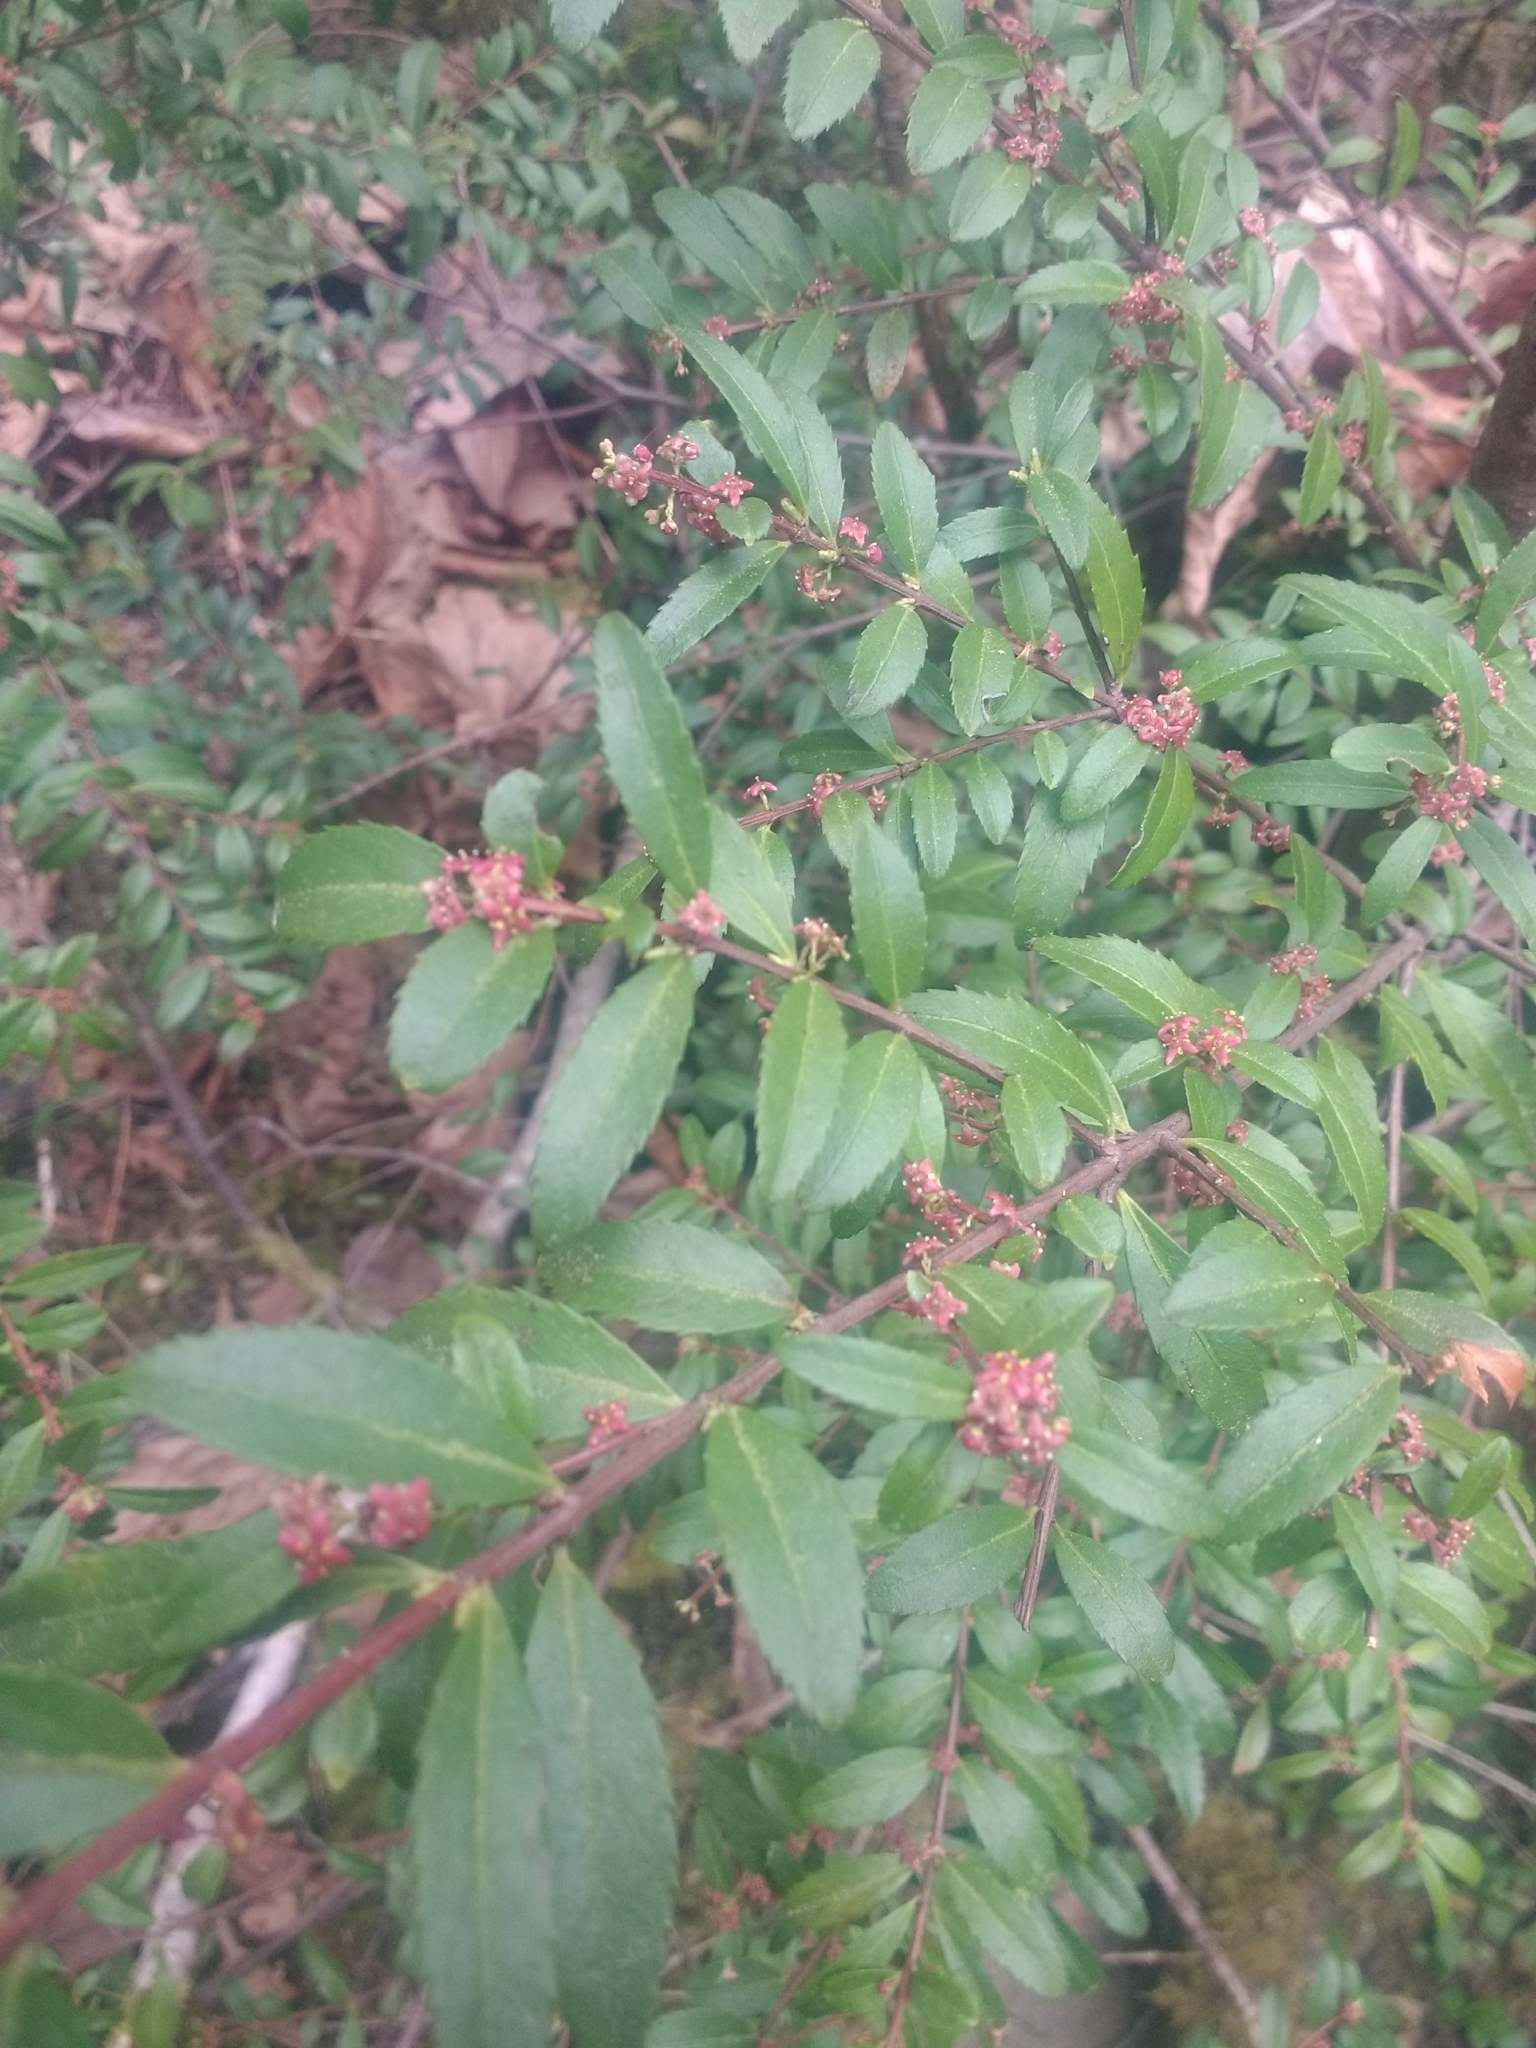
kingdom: Plantae
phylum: Tracheophyta
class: Magnoliopsida
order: Celastrales
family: Celastraceae
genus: Paxistima
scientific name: Paxistima myrsinites
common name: Mountain-lover
